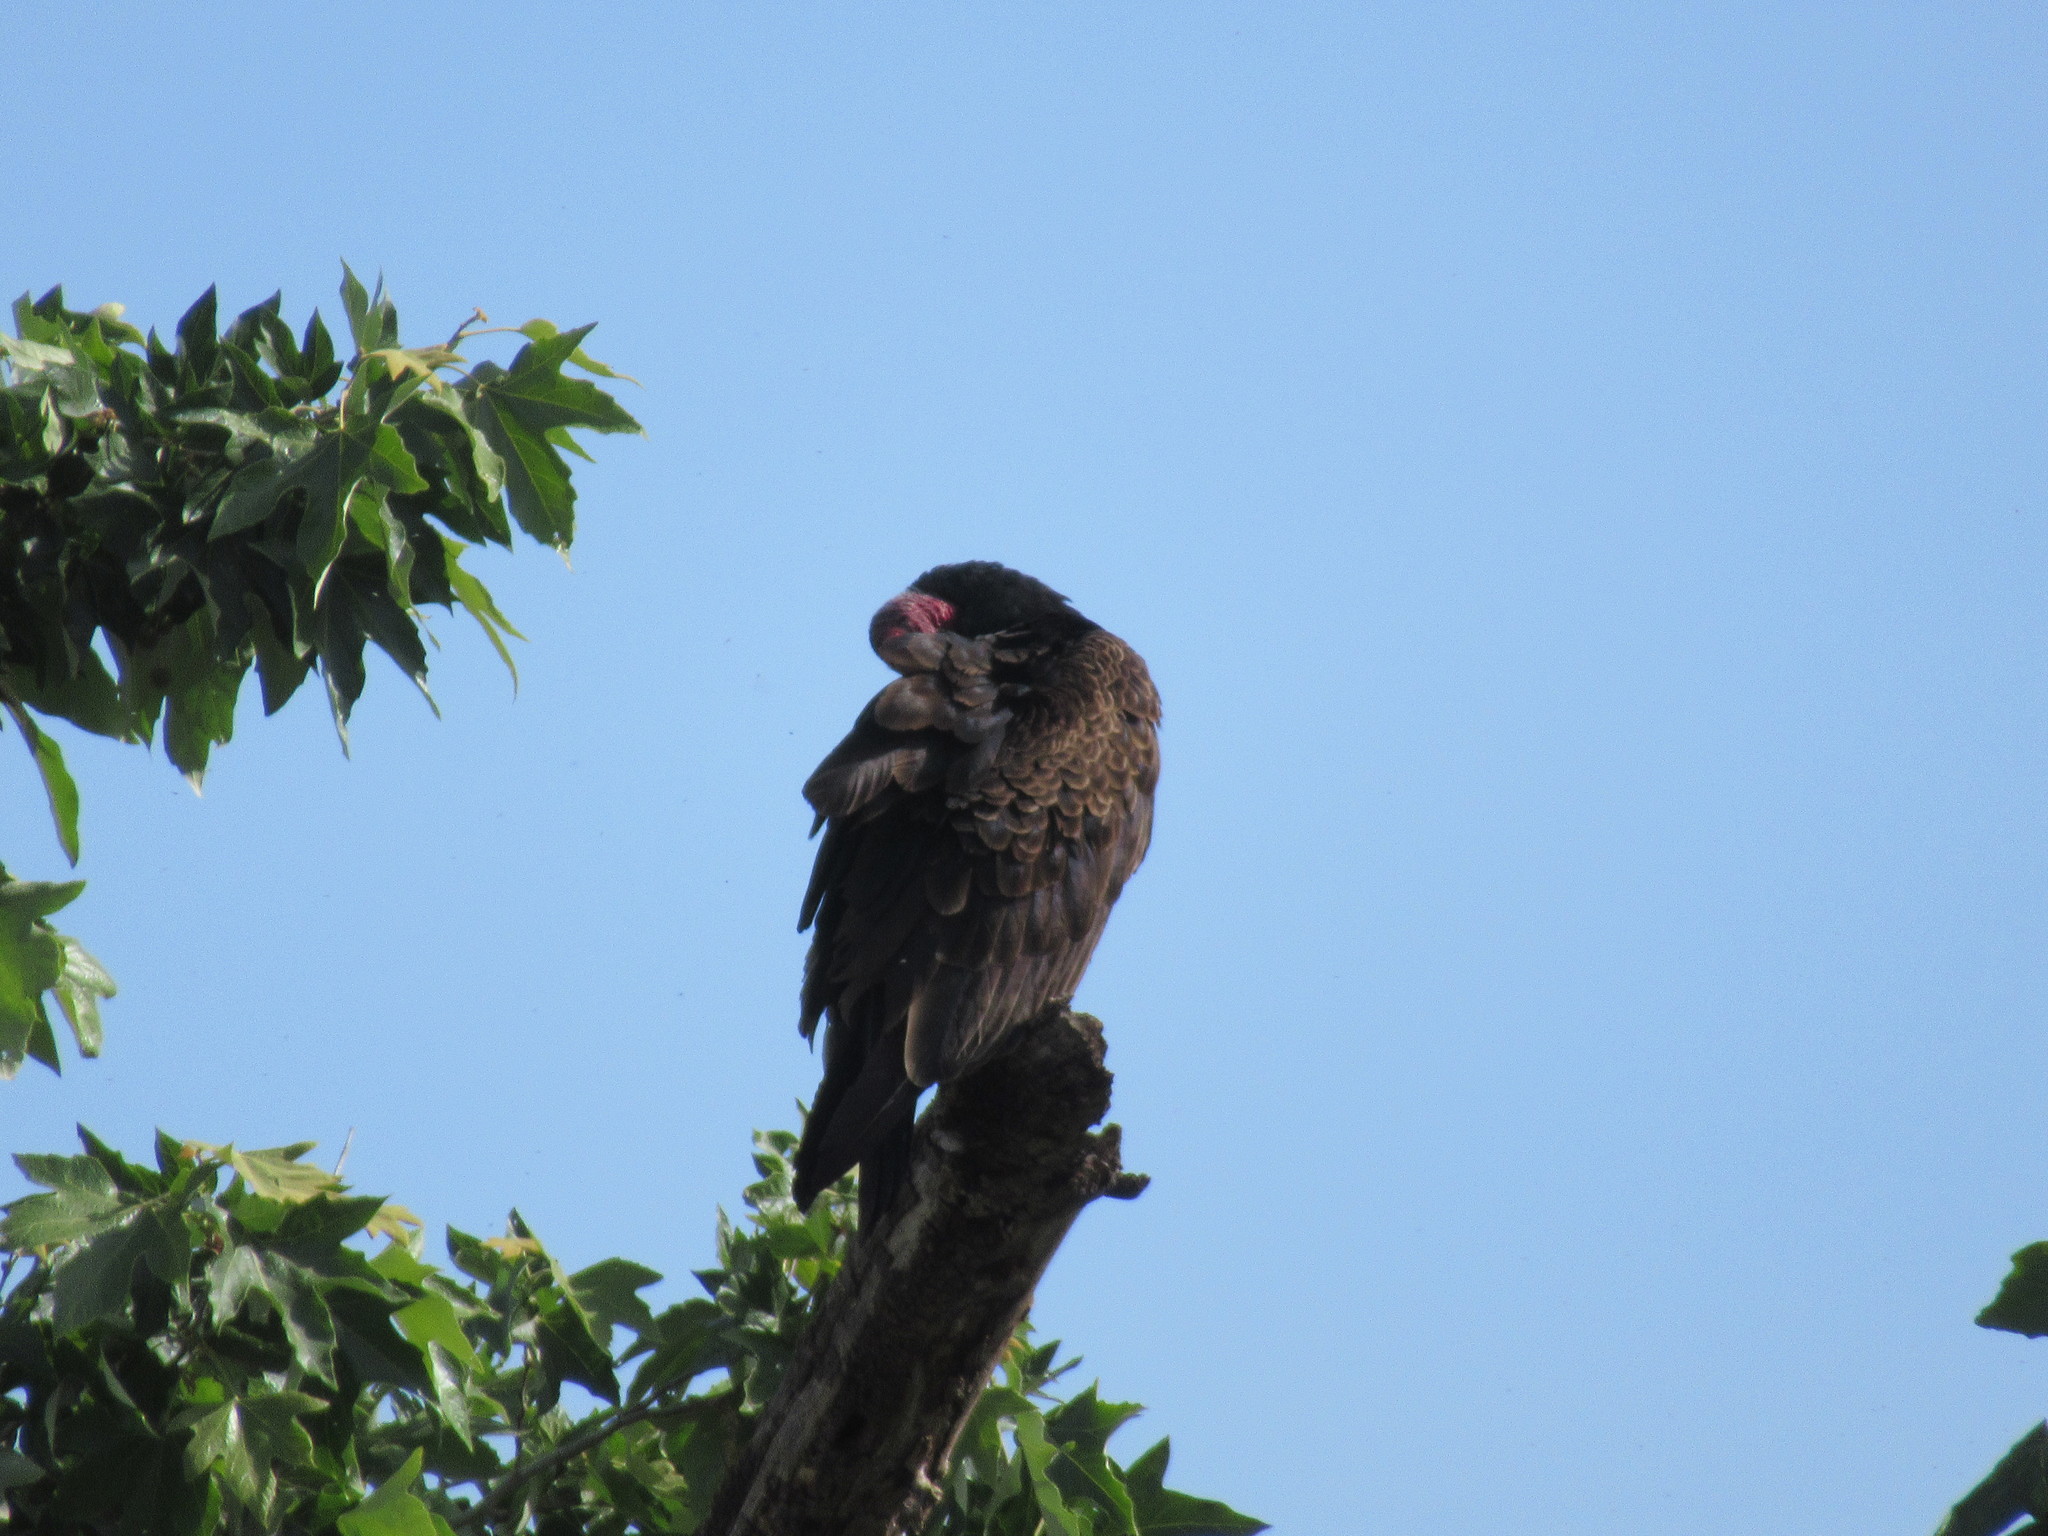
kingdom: Animalia
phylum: Chordata
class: Aves
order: Accipitriformes
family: Cathartidae
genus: Cathartes
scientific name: Cathartes aura
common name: Turkey vulture
